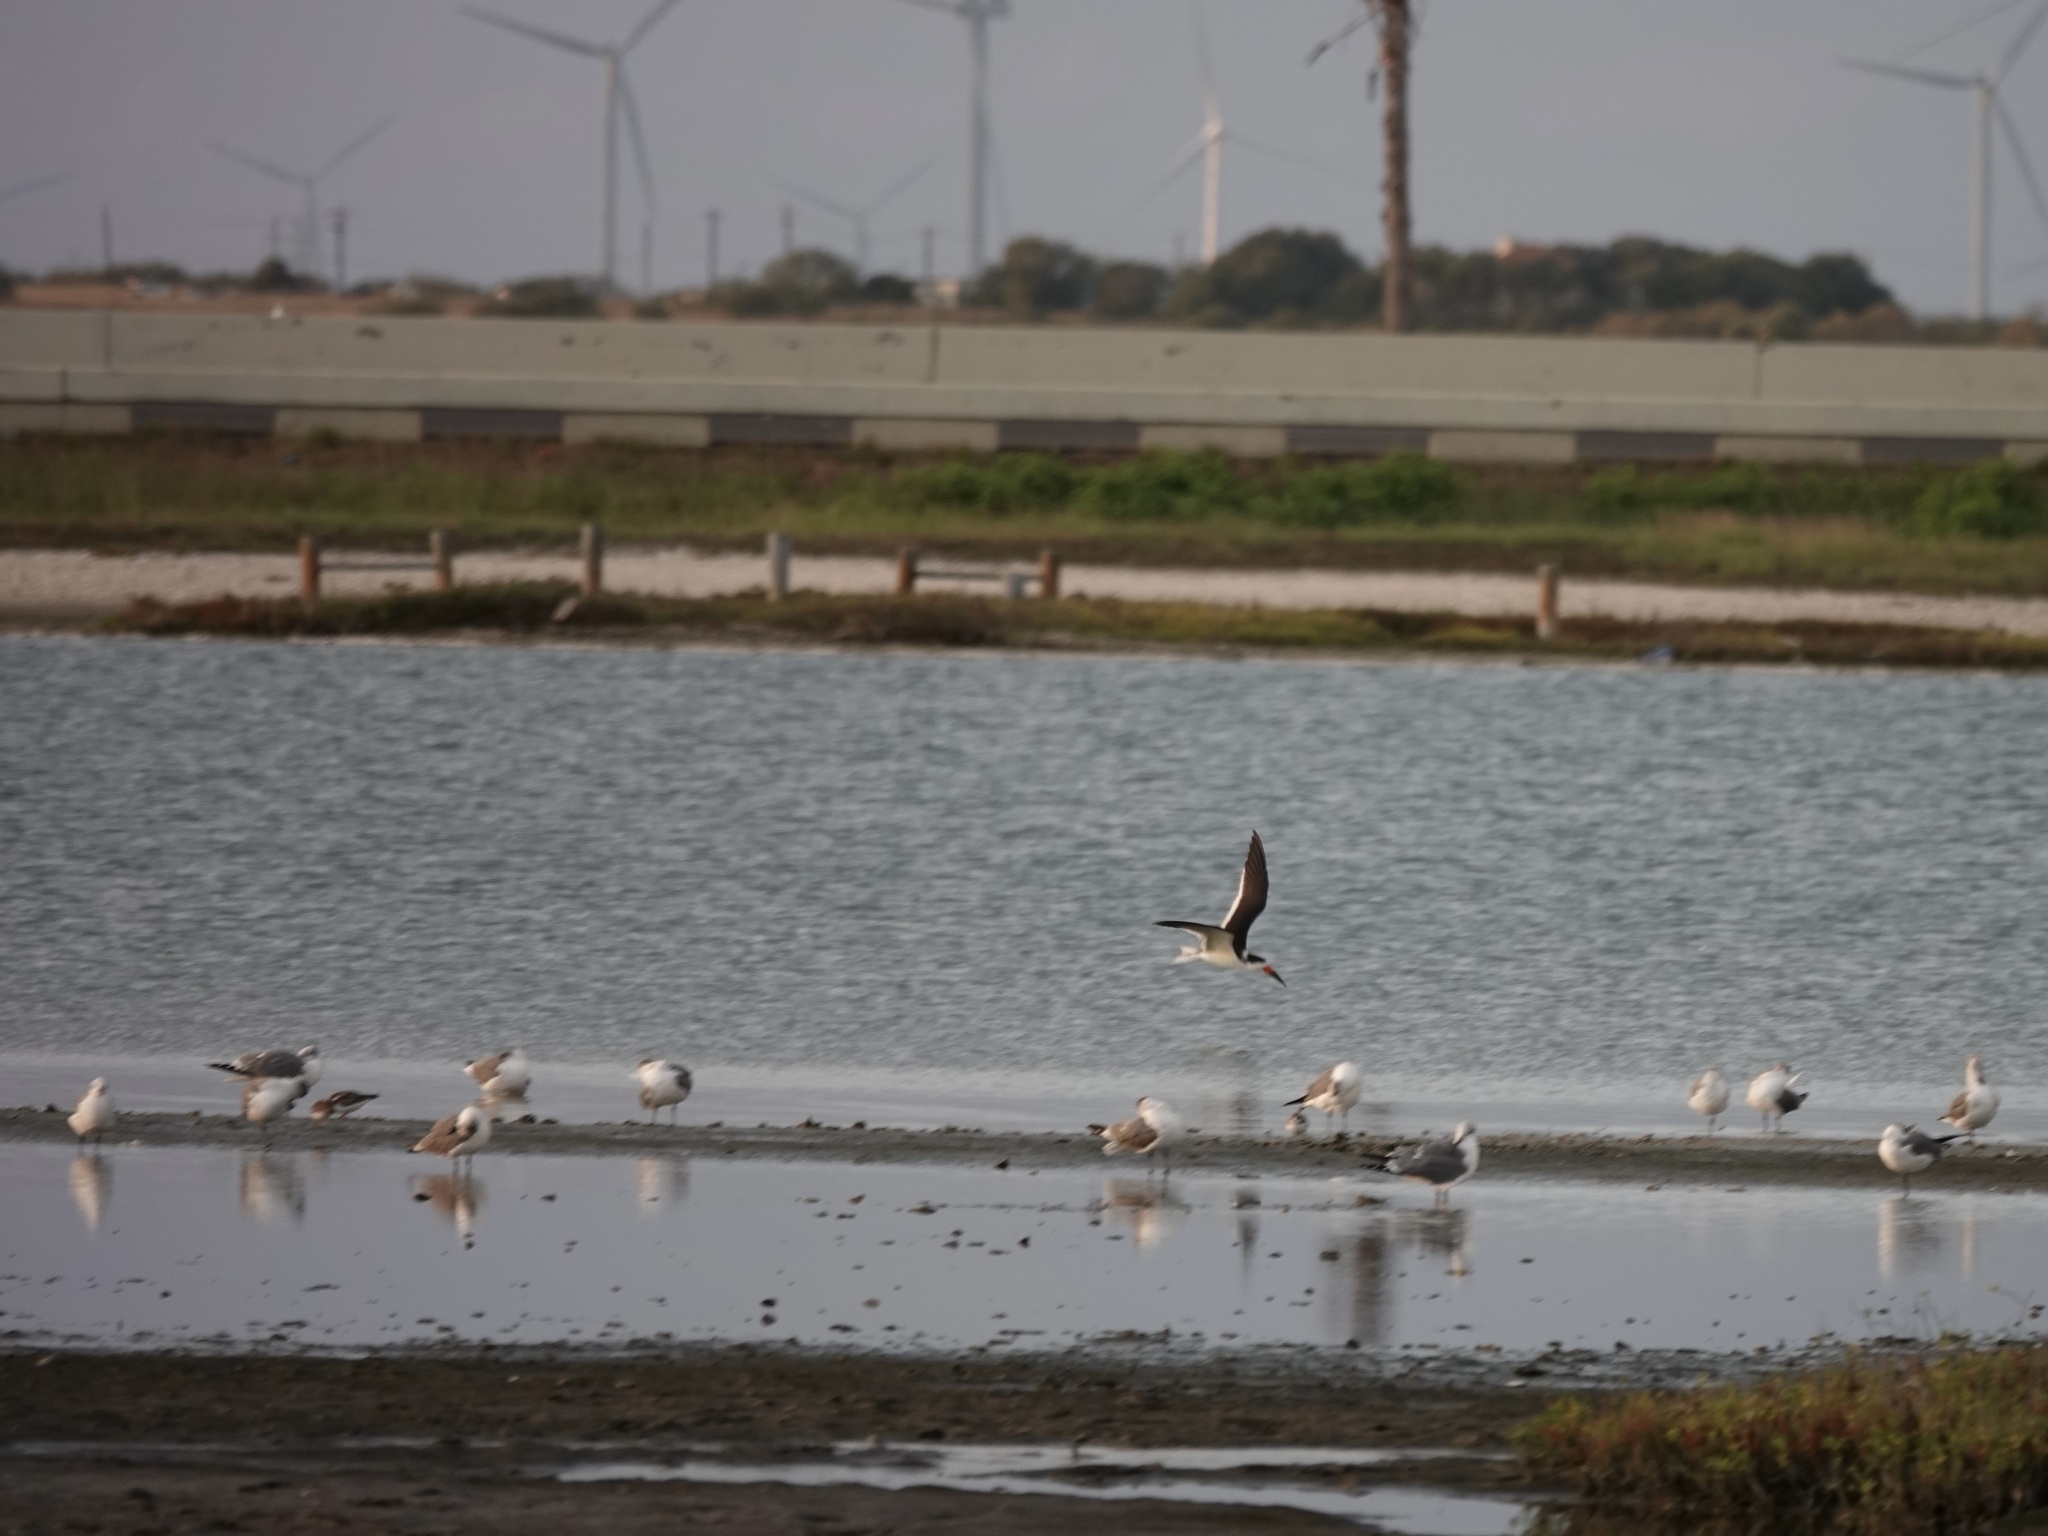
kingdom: Animalia
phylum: Chordata
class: Aves
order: Charadriiformes
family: Laridae
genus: Rynchops
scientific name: Rynchops niger
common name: Black skimmer
